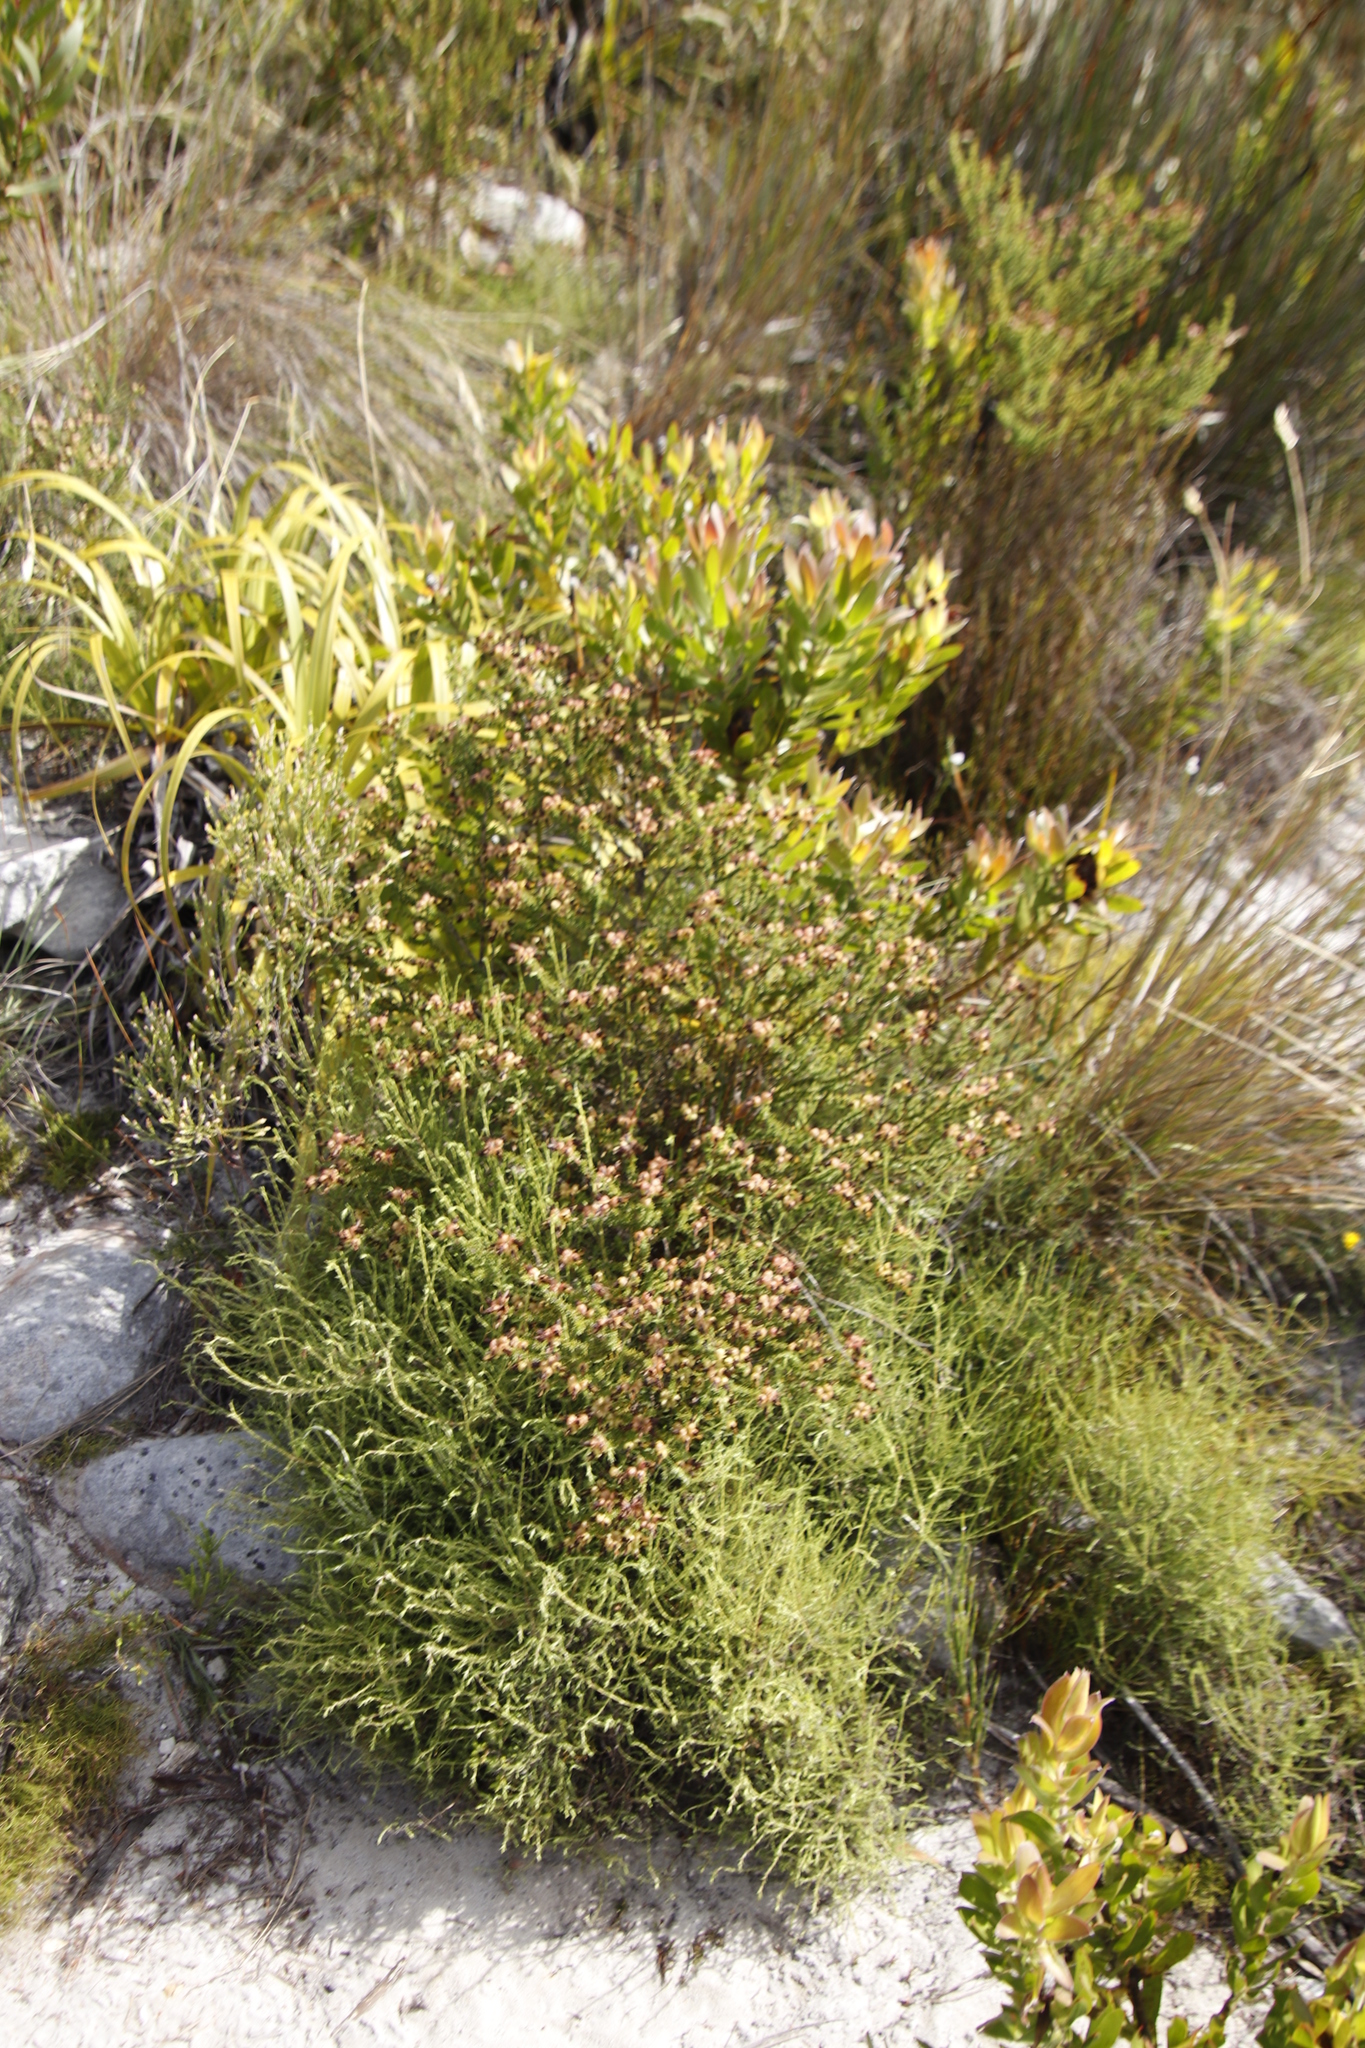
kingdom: Plantae
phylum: Tracheophyta
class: Magnoliopsida
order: Fabales
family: Fabaceae
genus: Aspalathus
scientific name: Aspalathus carnosa
